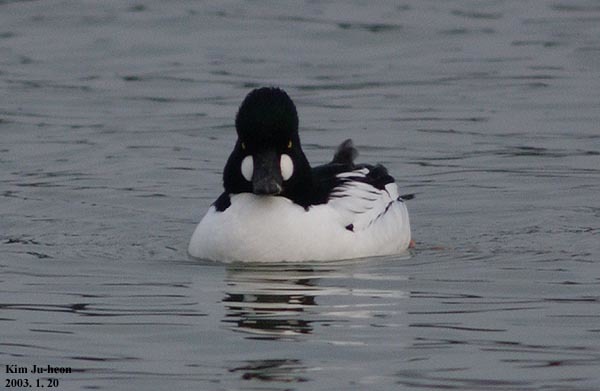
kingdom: Animalia
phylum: Chordata
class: Aves
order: Anseriformes
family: Anatidae
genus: Bucephala
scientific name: Bucephala clangula
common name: Common goldeneye
